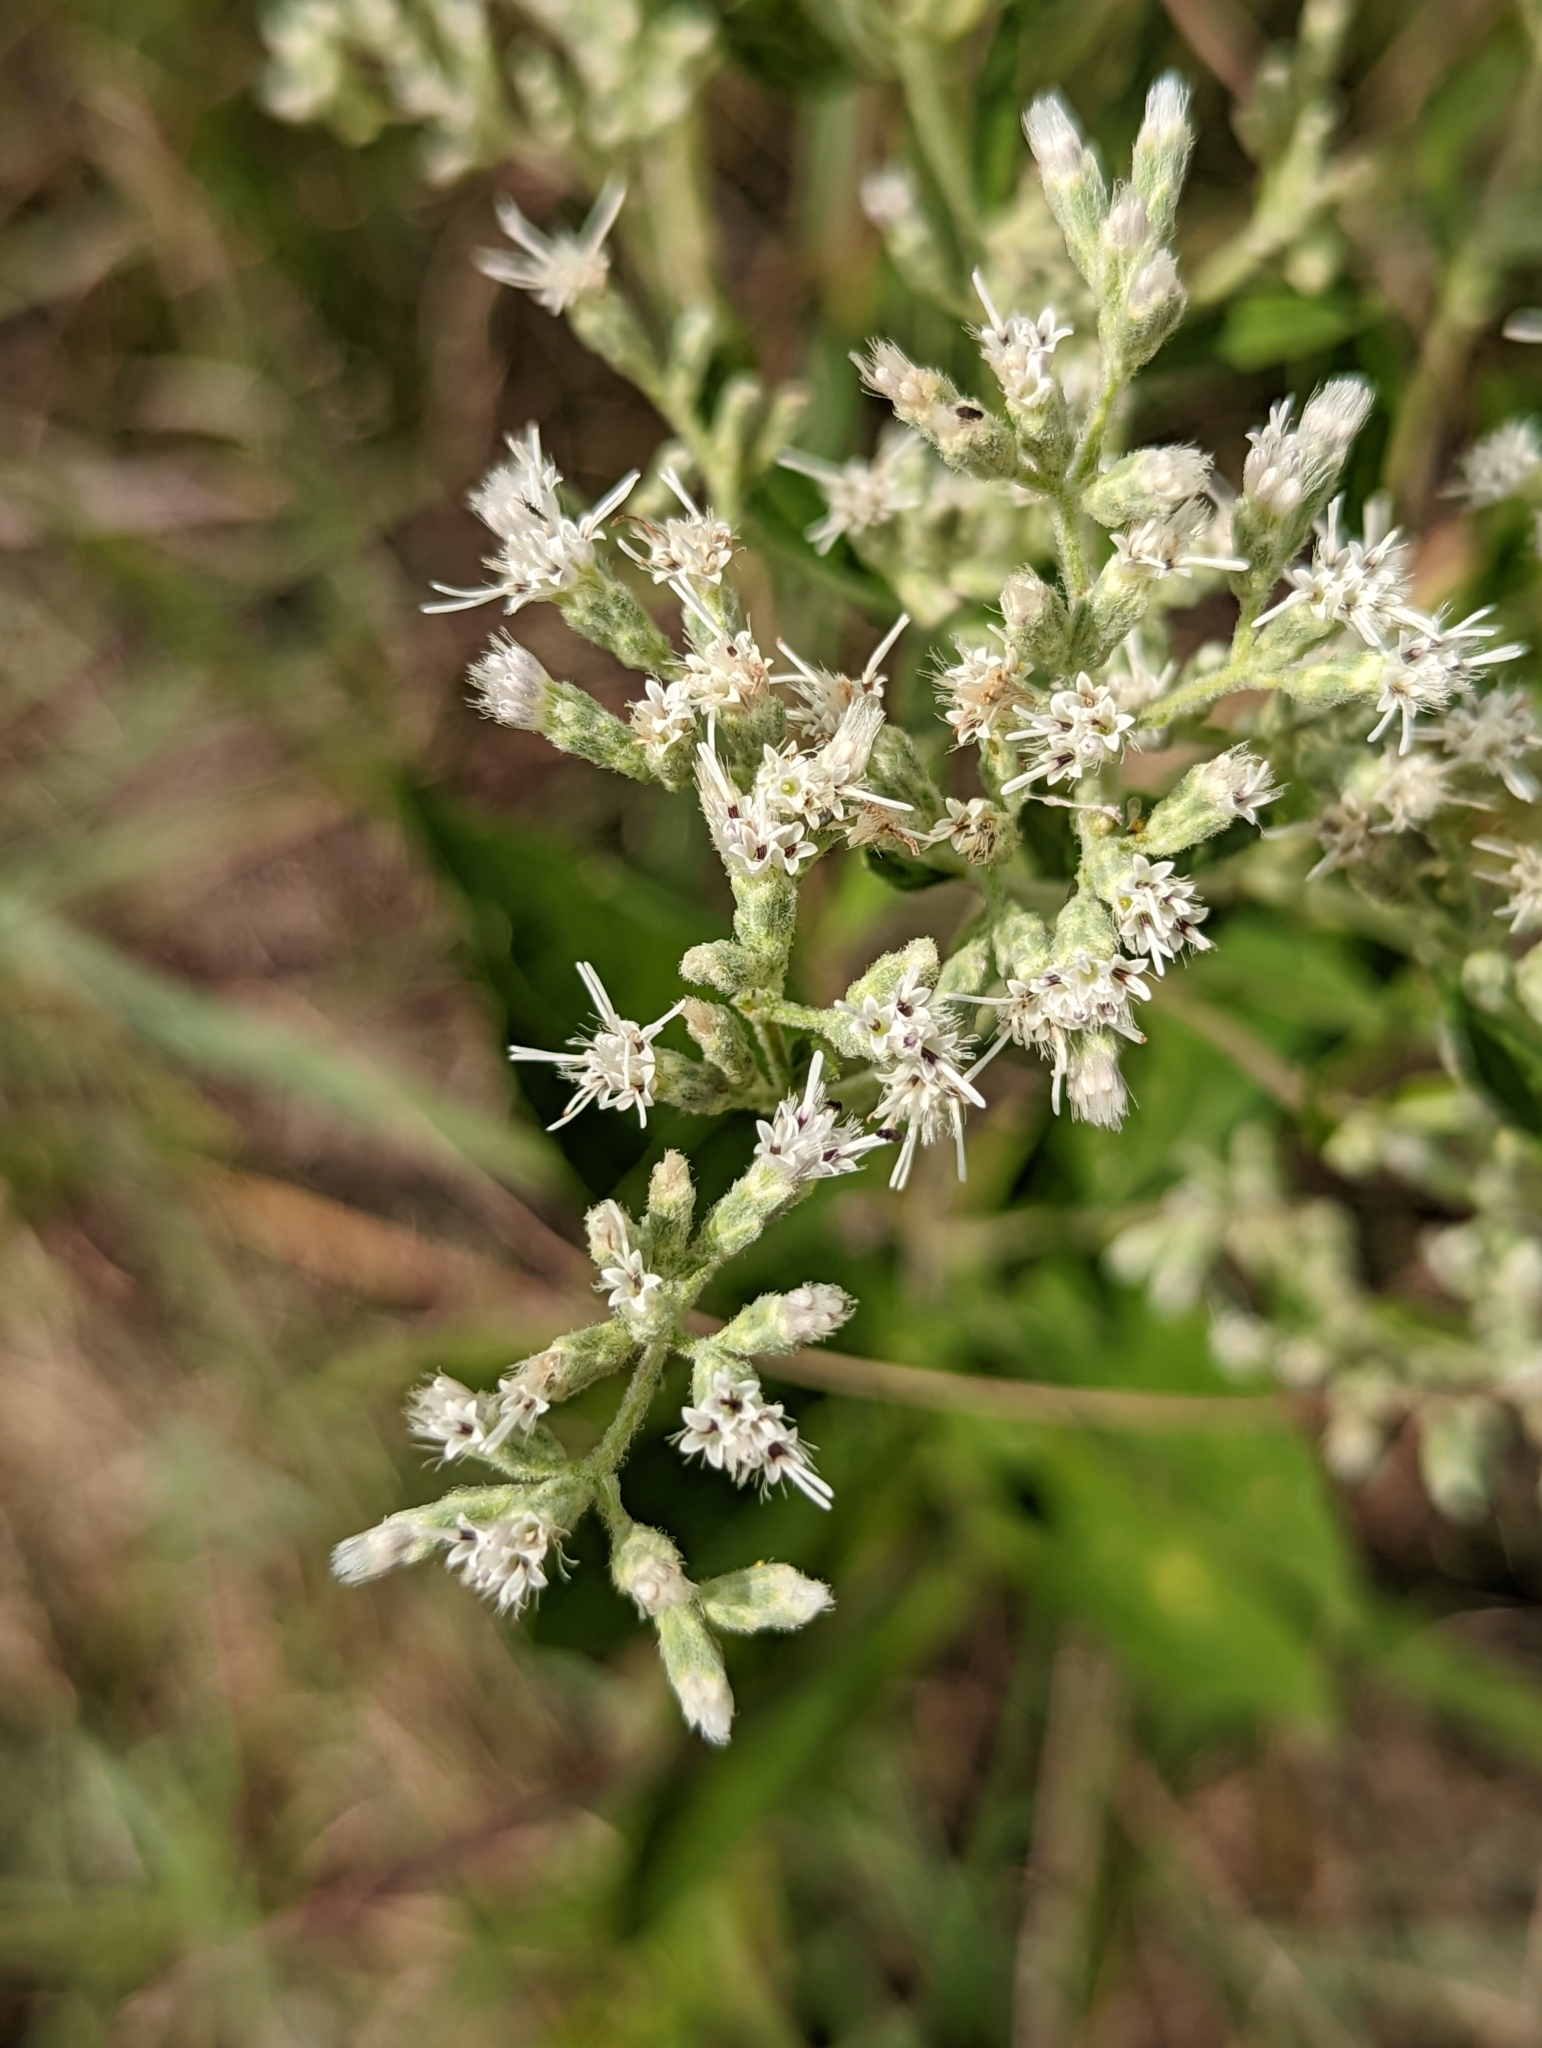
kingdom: Plantae
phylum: Tracheophyta
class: Magnoliopsida
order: Asterales
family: Asteraceae
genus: Eupatorium
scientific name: Eupatorium altissimum
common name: Tall thoroughwort
